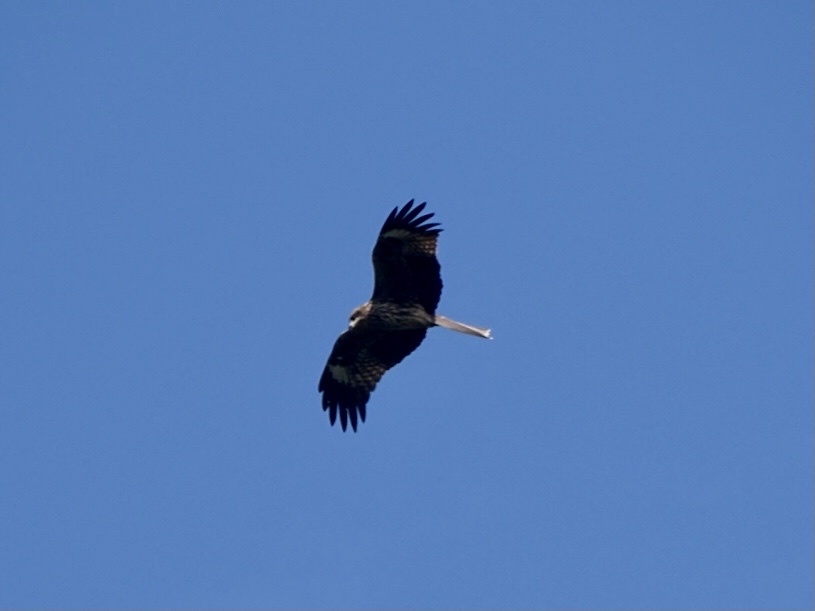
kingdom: Animalia
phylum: Chordata
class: Aves
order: Accipitriformes
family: Accipitridae
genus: Milvus
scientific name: Milvus migrans
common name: Black kite
